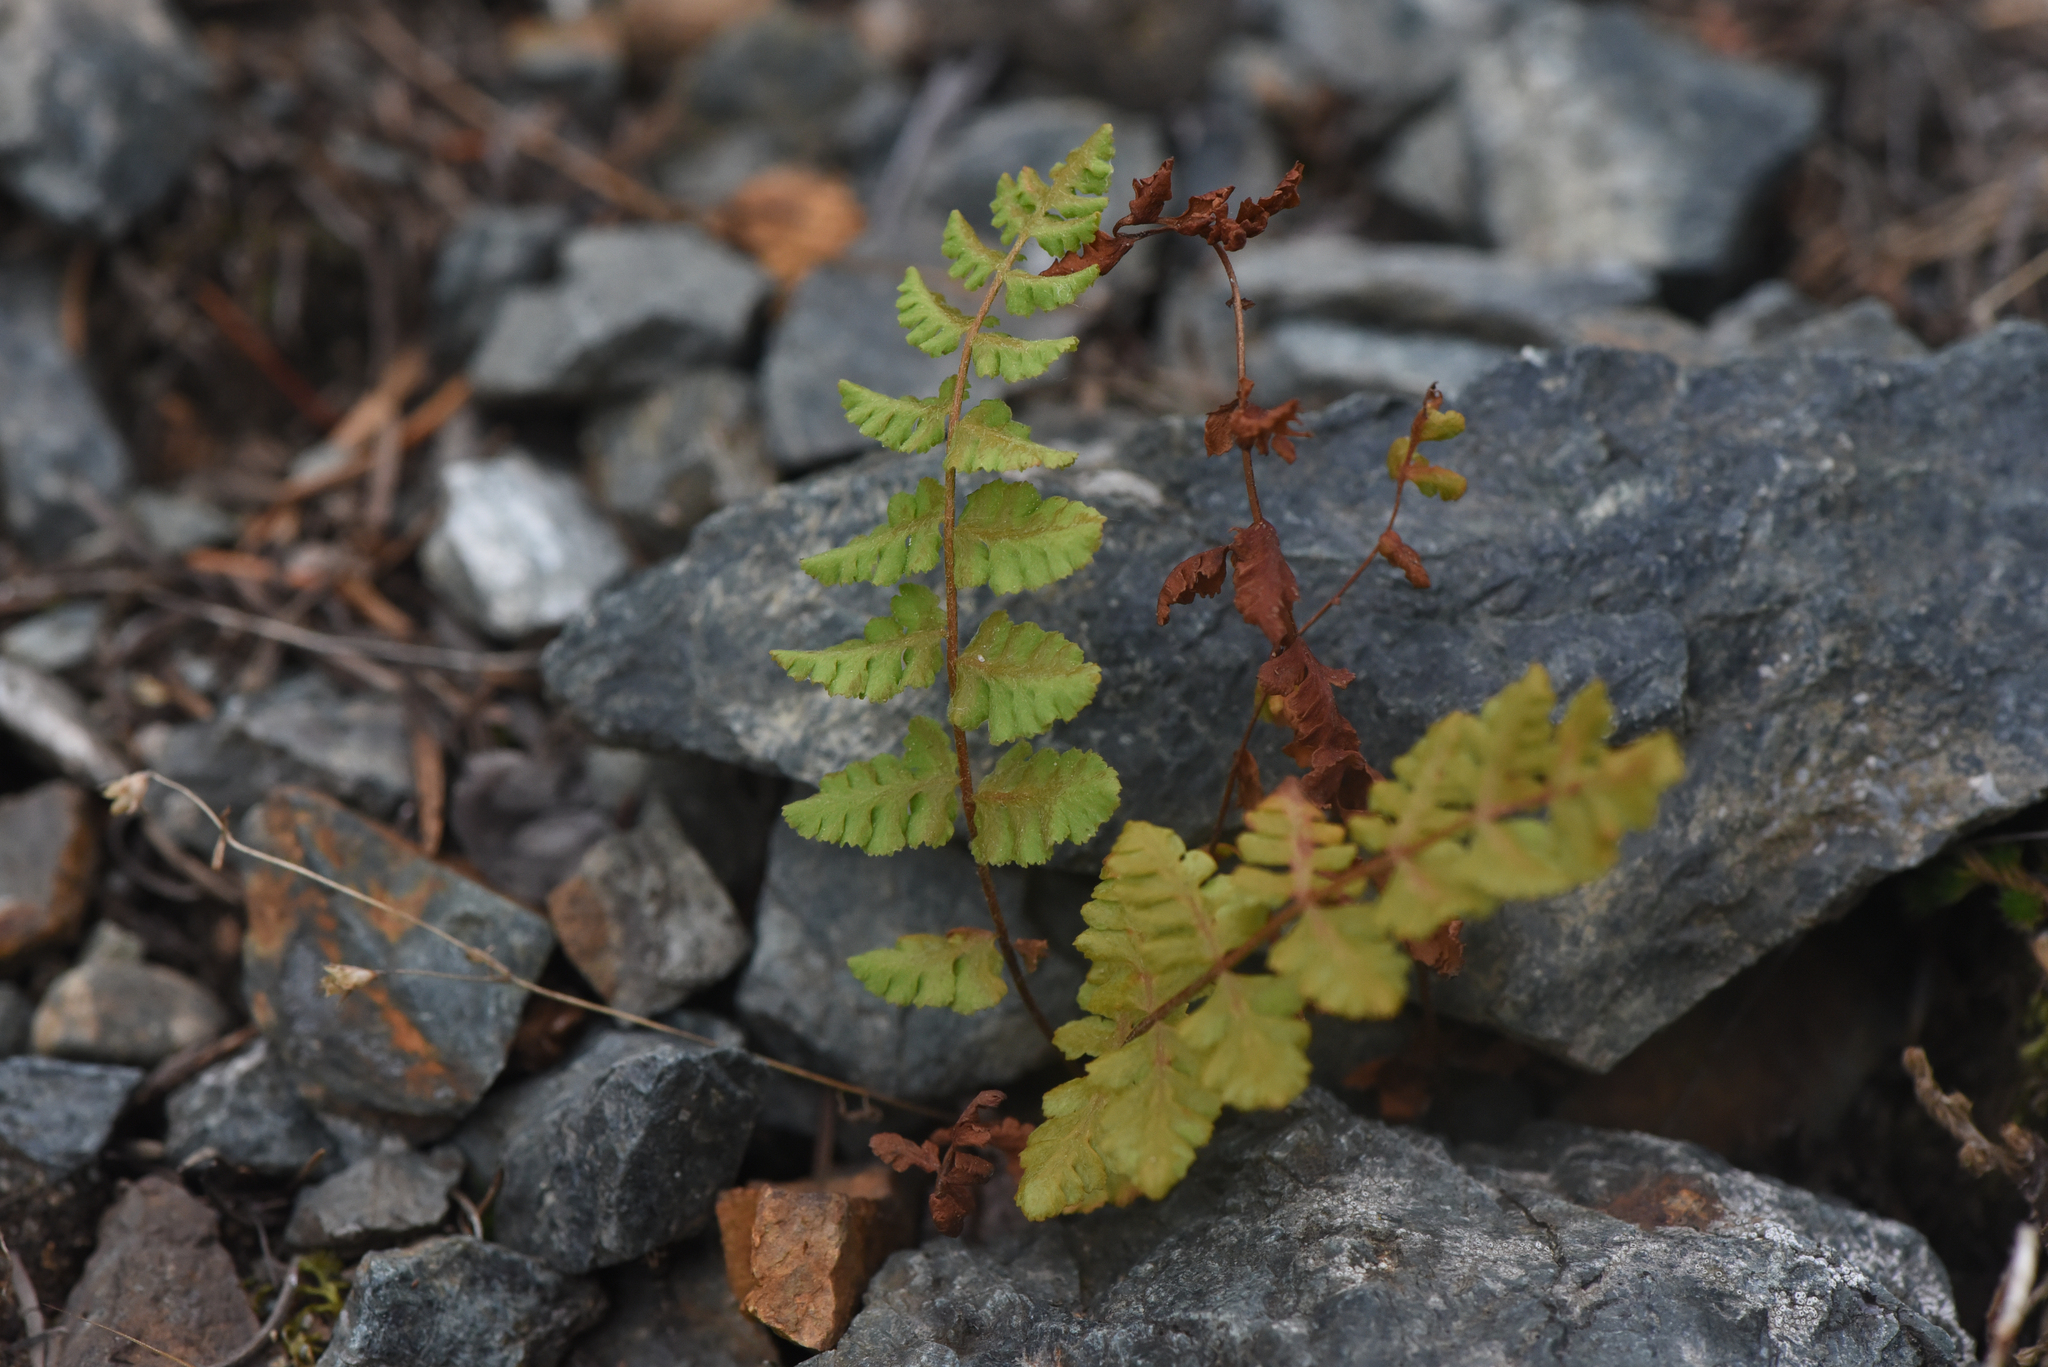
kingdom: Plantae
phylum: Tracheophyta
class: Polypodiopsida
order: Polypodiales
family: Woodsiaceae
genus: Physematium
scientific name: Physematium scopulinum
